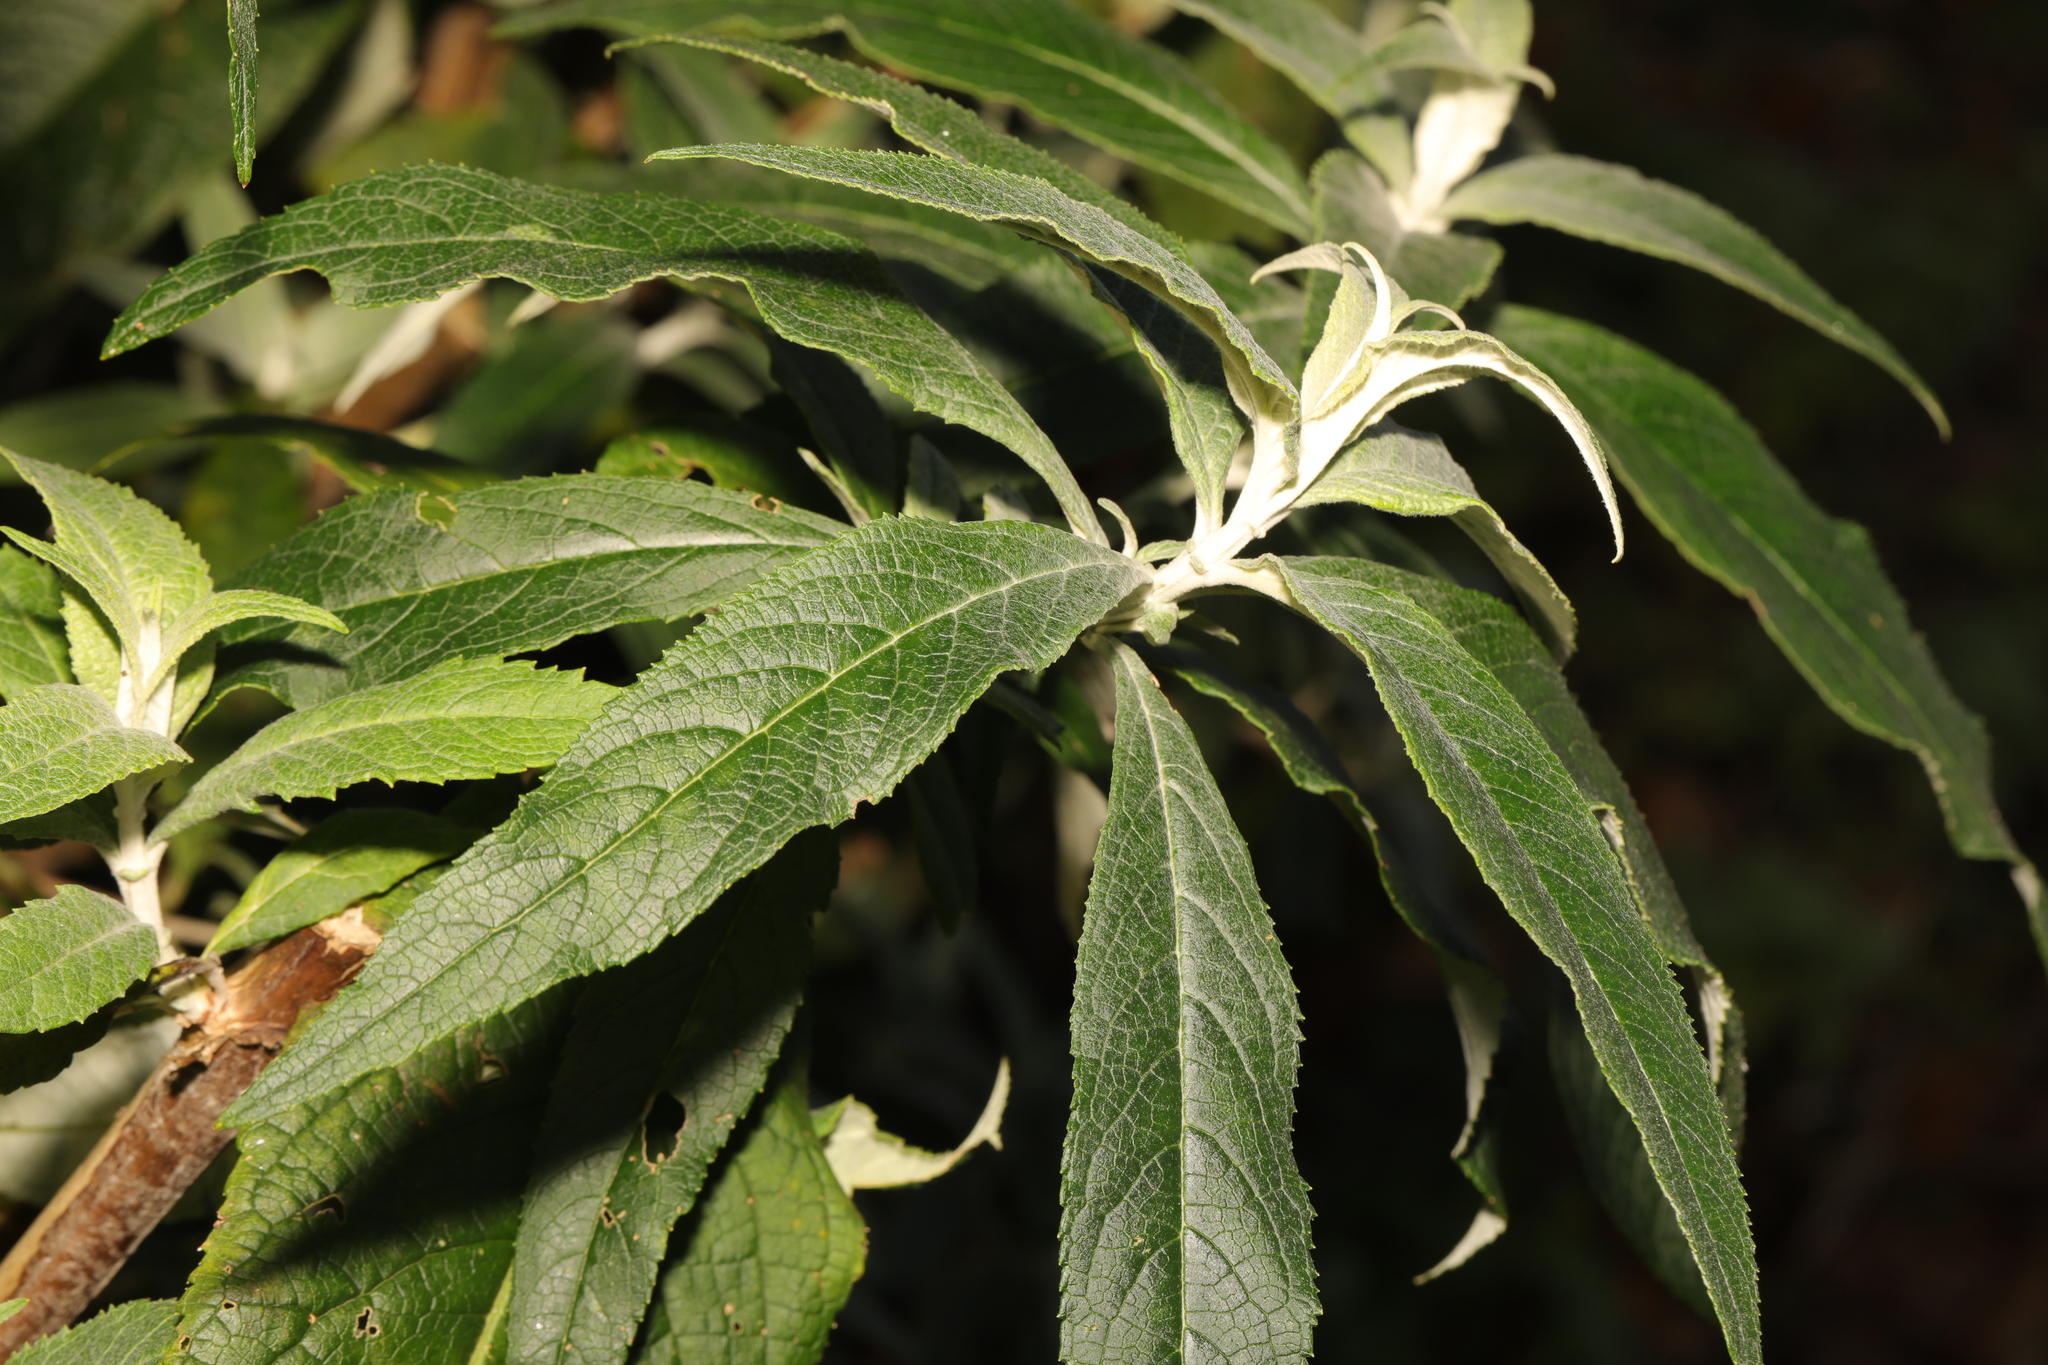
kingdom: Plantae
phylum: Tracheophyta
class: Magnoliopsida
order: Lamiales
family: Scrophulariaceae
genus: Buddleja
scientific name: Buddleja davidii
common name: Butterfly-bush
